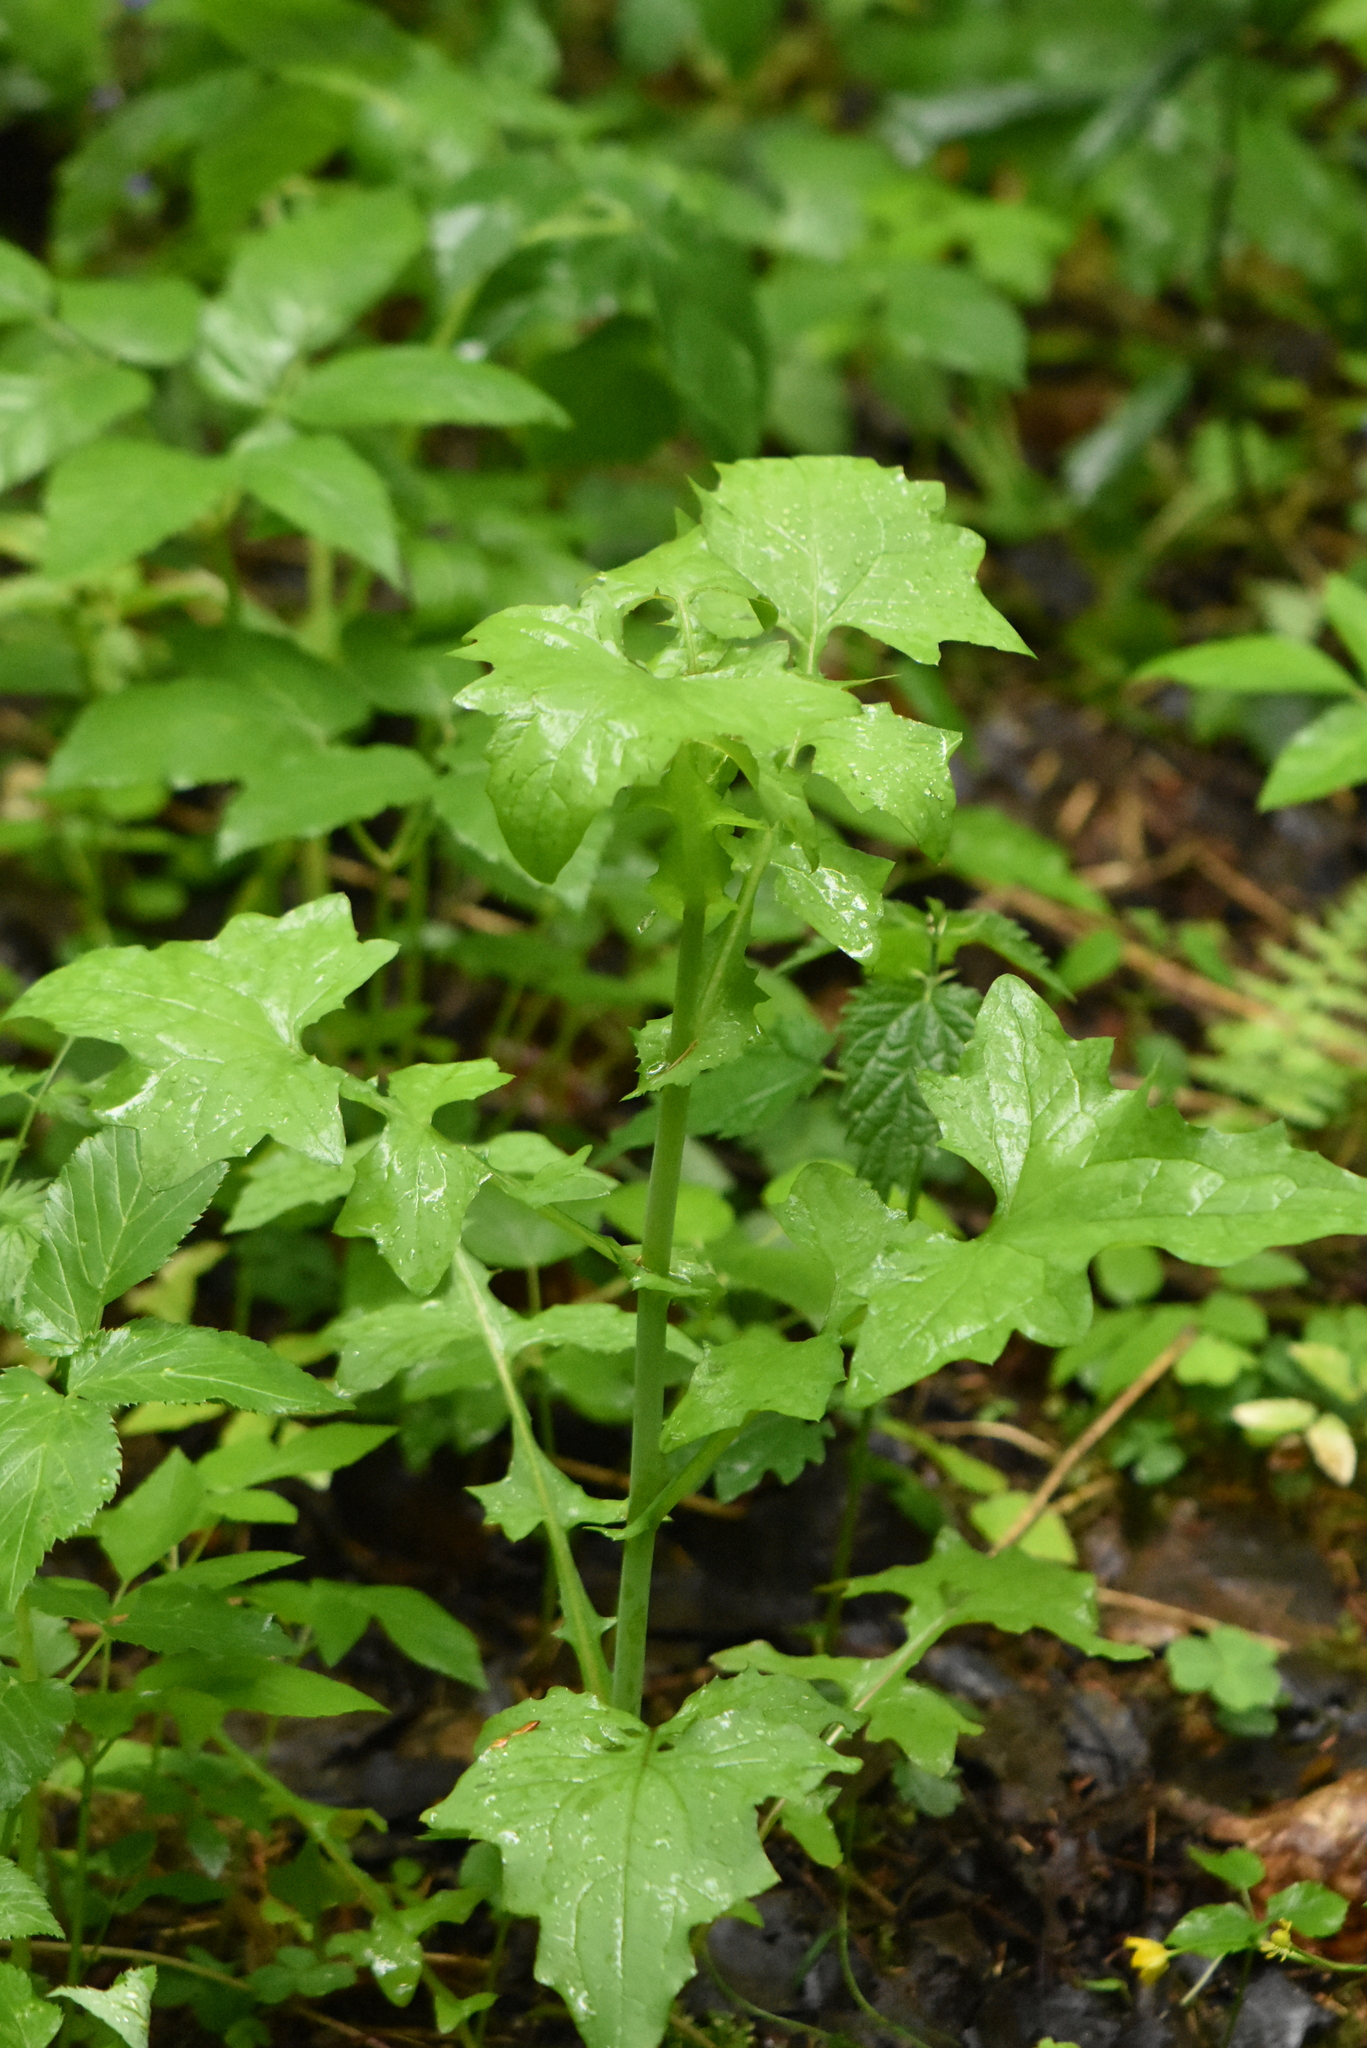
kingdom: Plantae
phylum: Tracheophyta
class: Magnoliopsida
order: Asterales
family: Asteraceae
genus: Mycelis
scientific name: Mycelis muralis
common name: Wall lettuce
